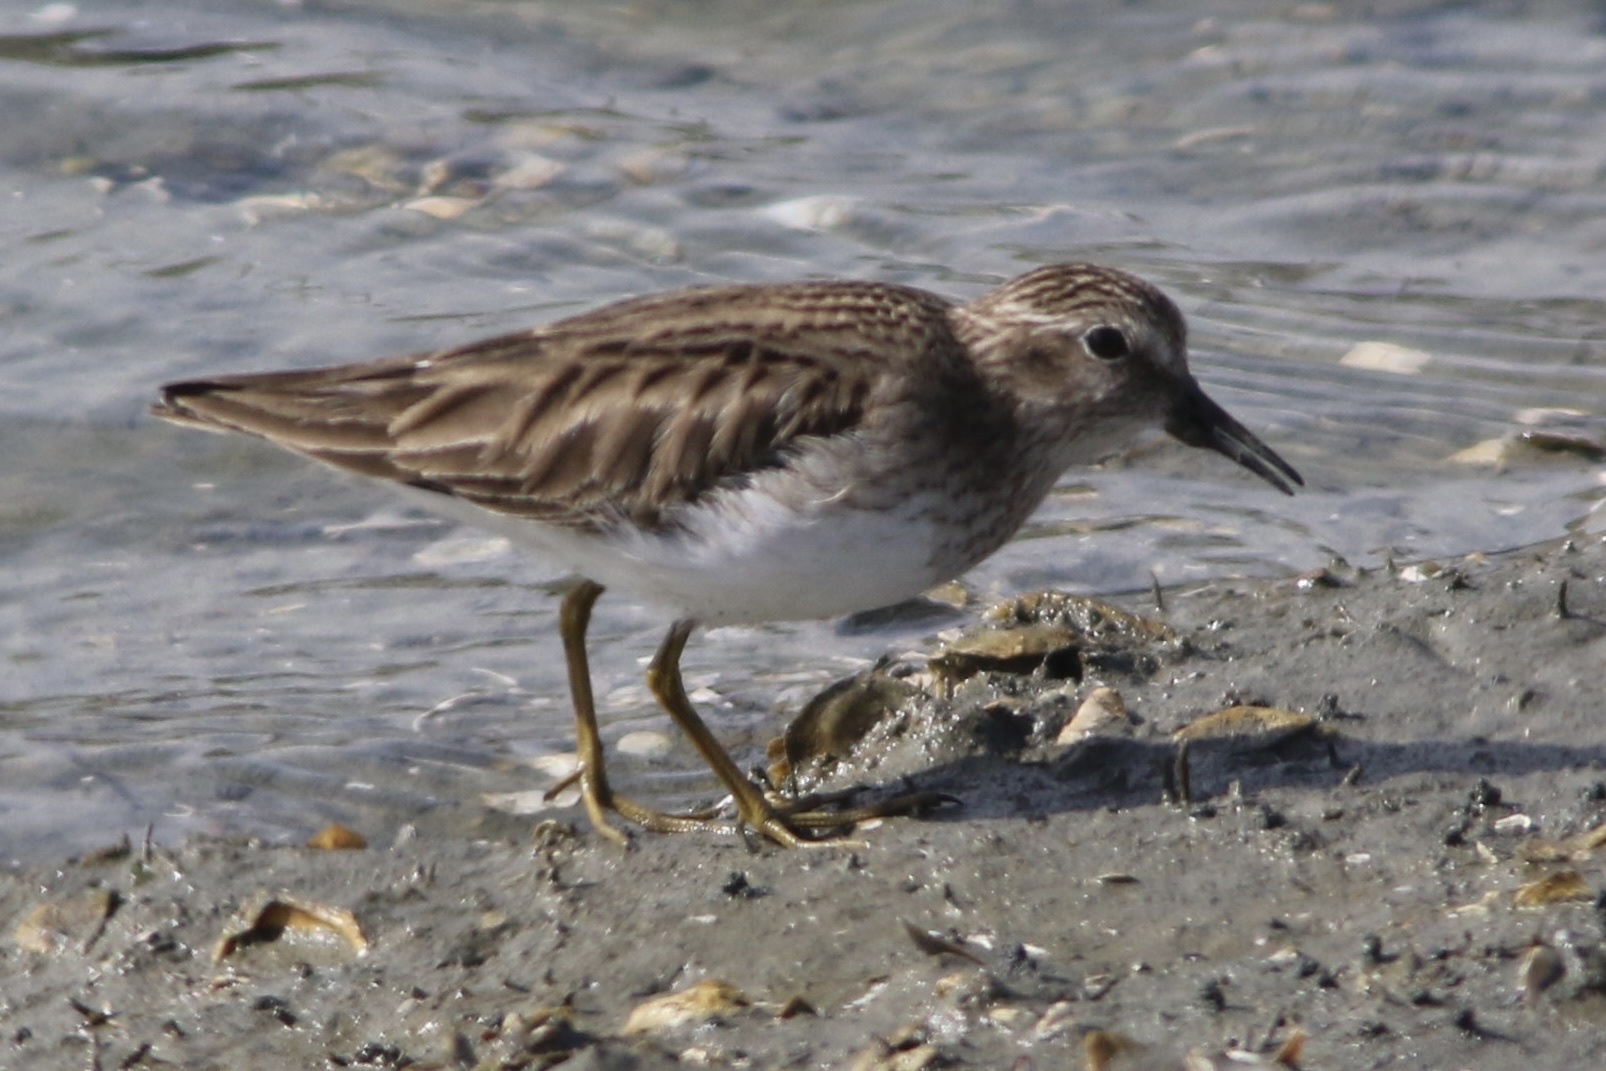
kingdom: Animalia
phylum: Chordata
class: Aves
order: Charadriiformes
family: Scolopacidae
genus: Calidris
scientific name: Calidris minutilla
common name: Least sandpiper
